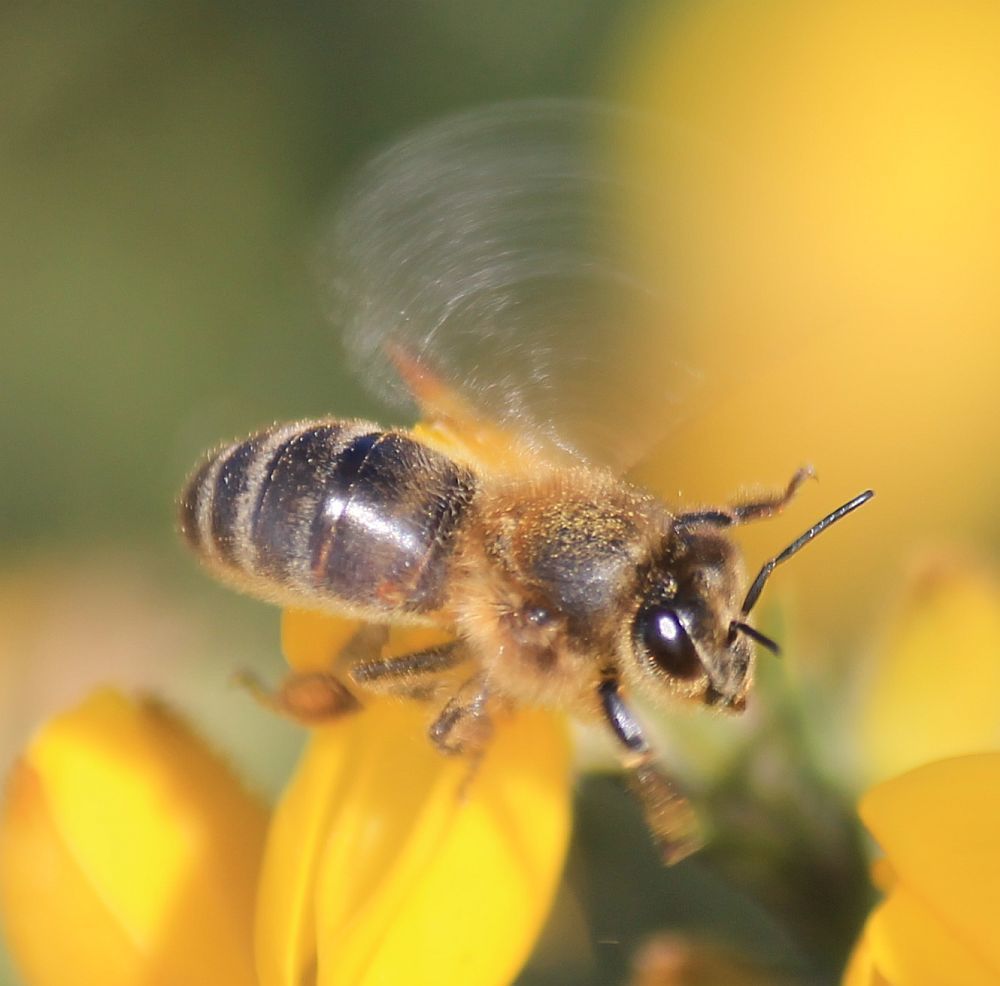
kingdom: Animalia
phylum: Arthropoda
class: Insecta
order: Hymenoptera
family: Apidae
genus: Apis
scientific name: Apis mellifera
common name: Honey bee
